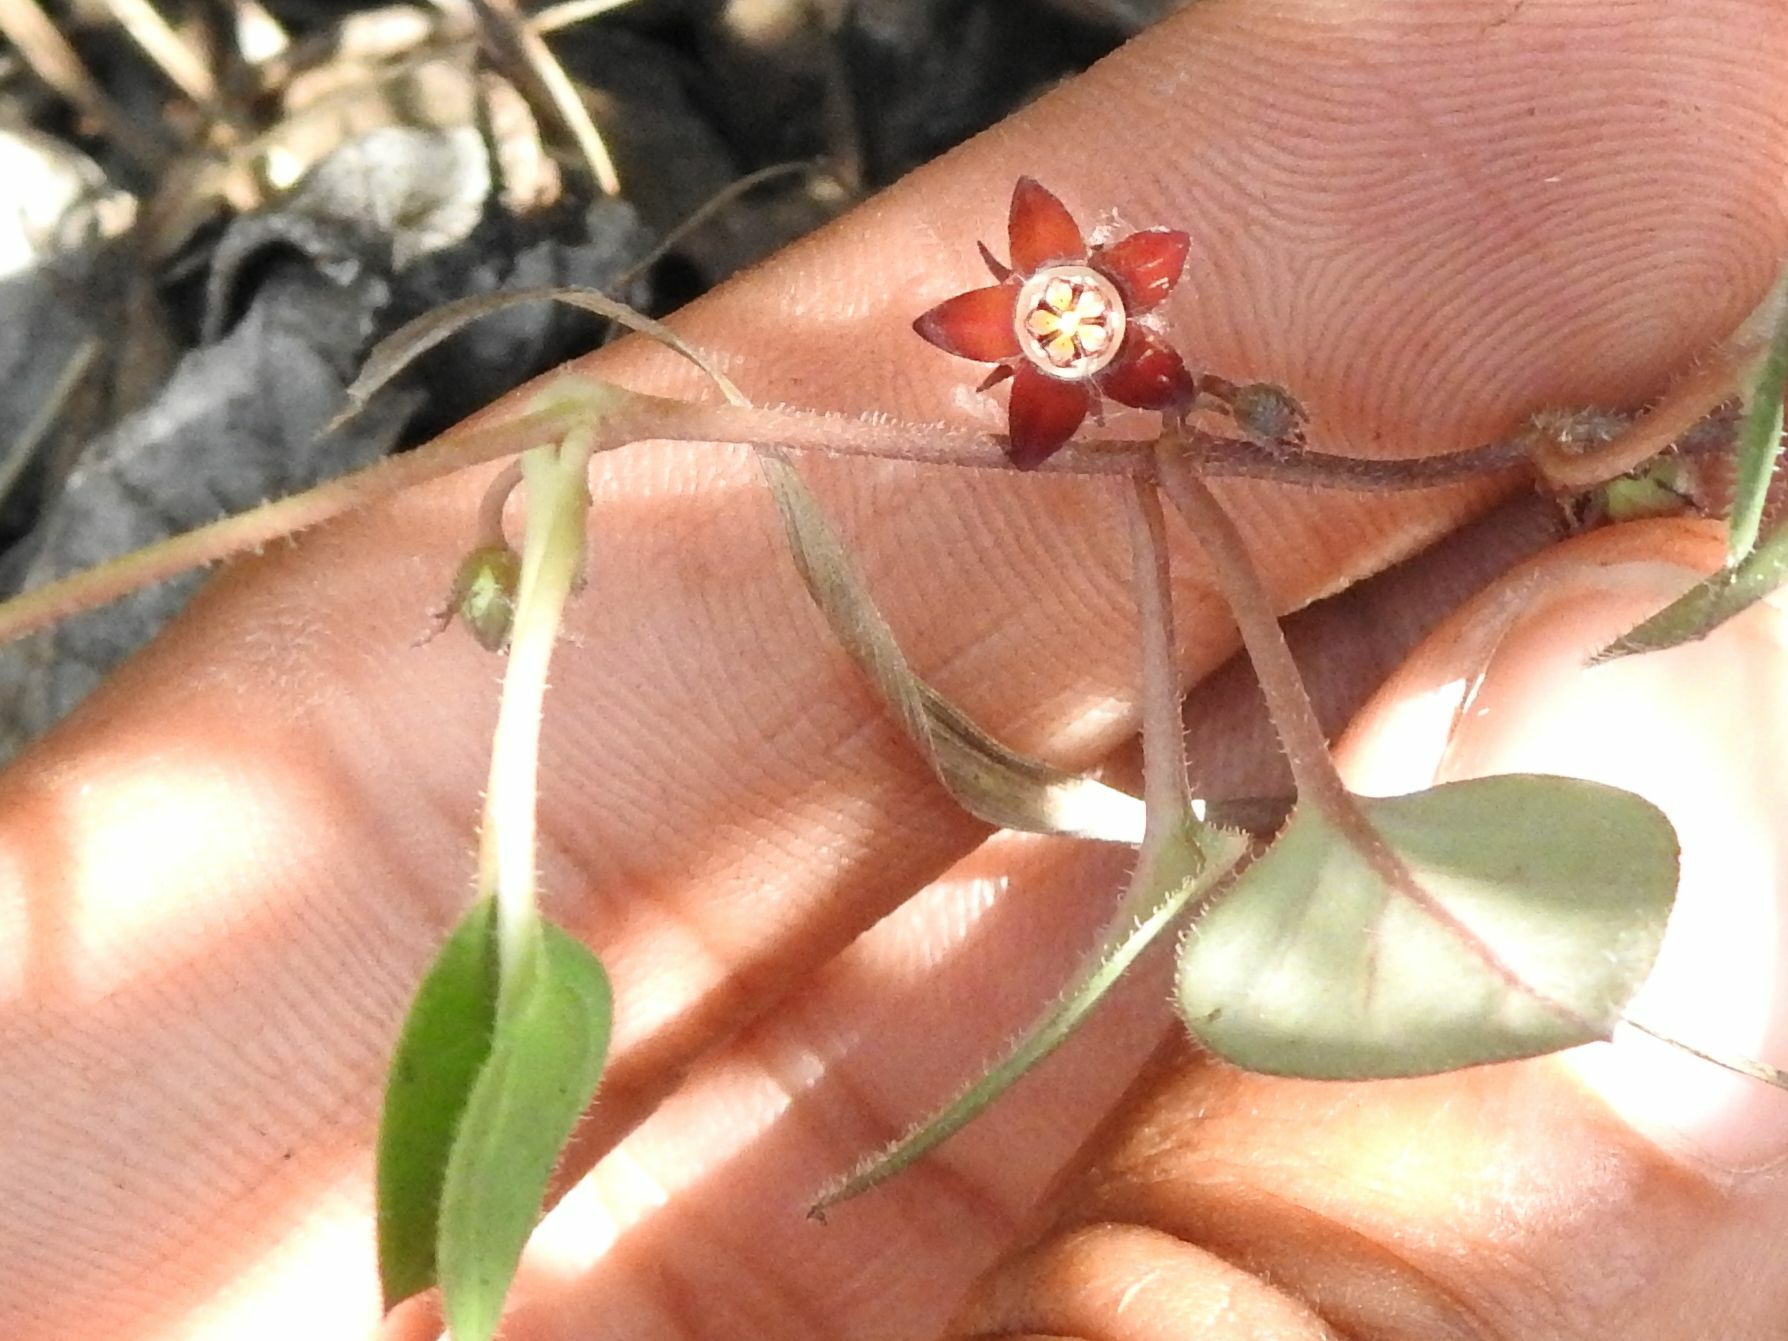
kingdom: Plantae
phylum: Tracheophyta
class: Magnoliopsida
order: Gentianales
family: Apocynaceae
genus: Ceropegia
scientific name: Ceropegia swazica
